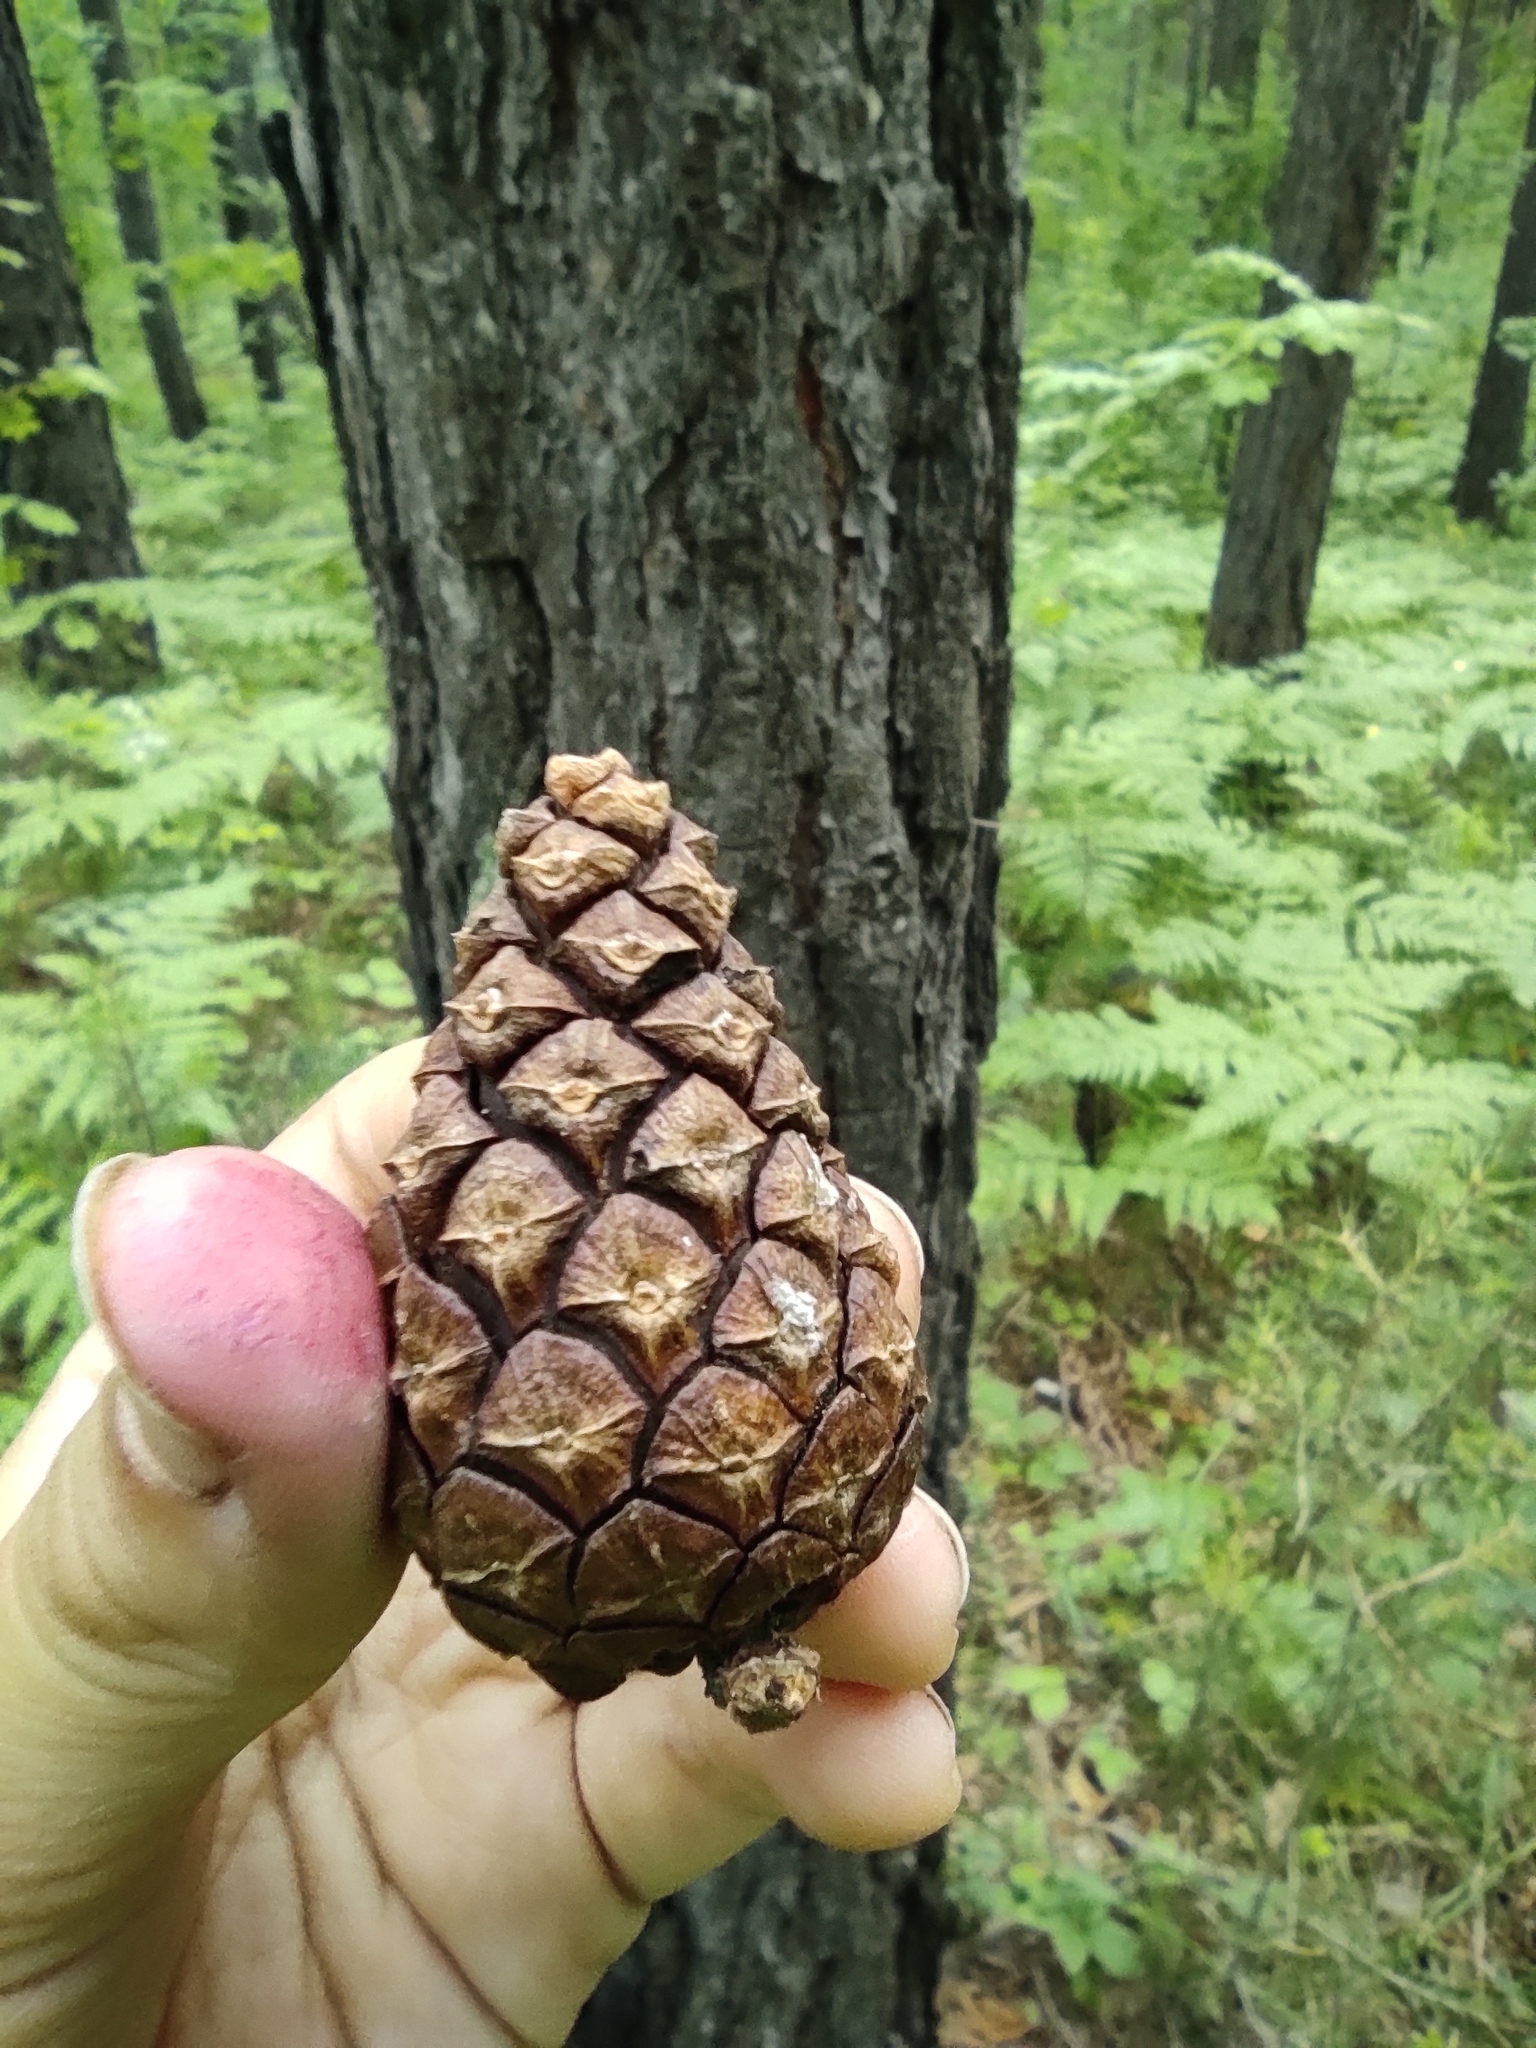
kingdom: Plantae
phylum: Tracheophyta
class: Pinopsida
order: Pinales
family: Pinaceae
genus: Pinus
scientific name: Pinus sylvestris
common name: Scots pine
